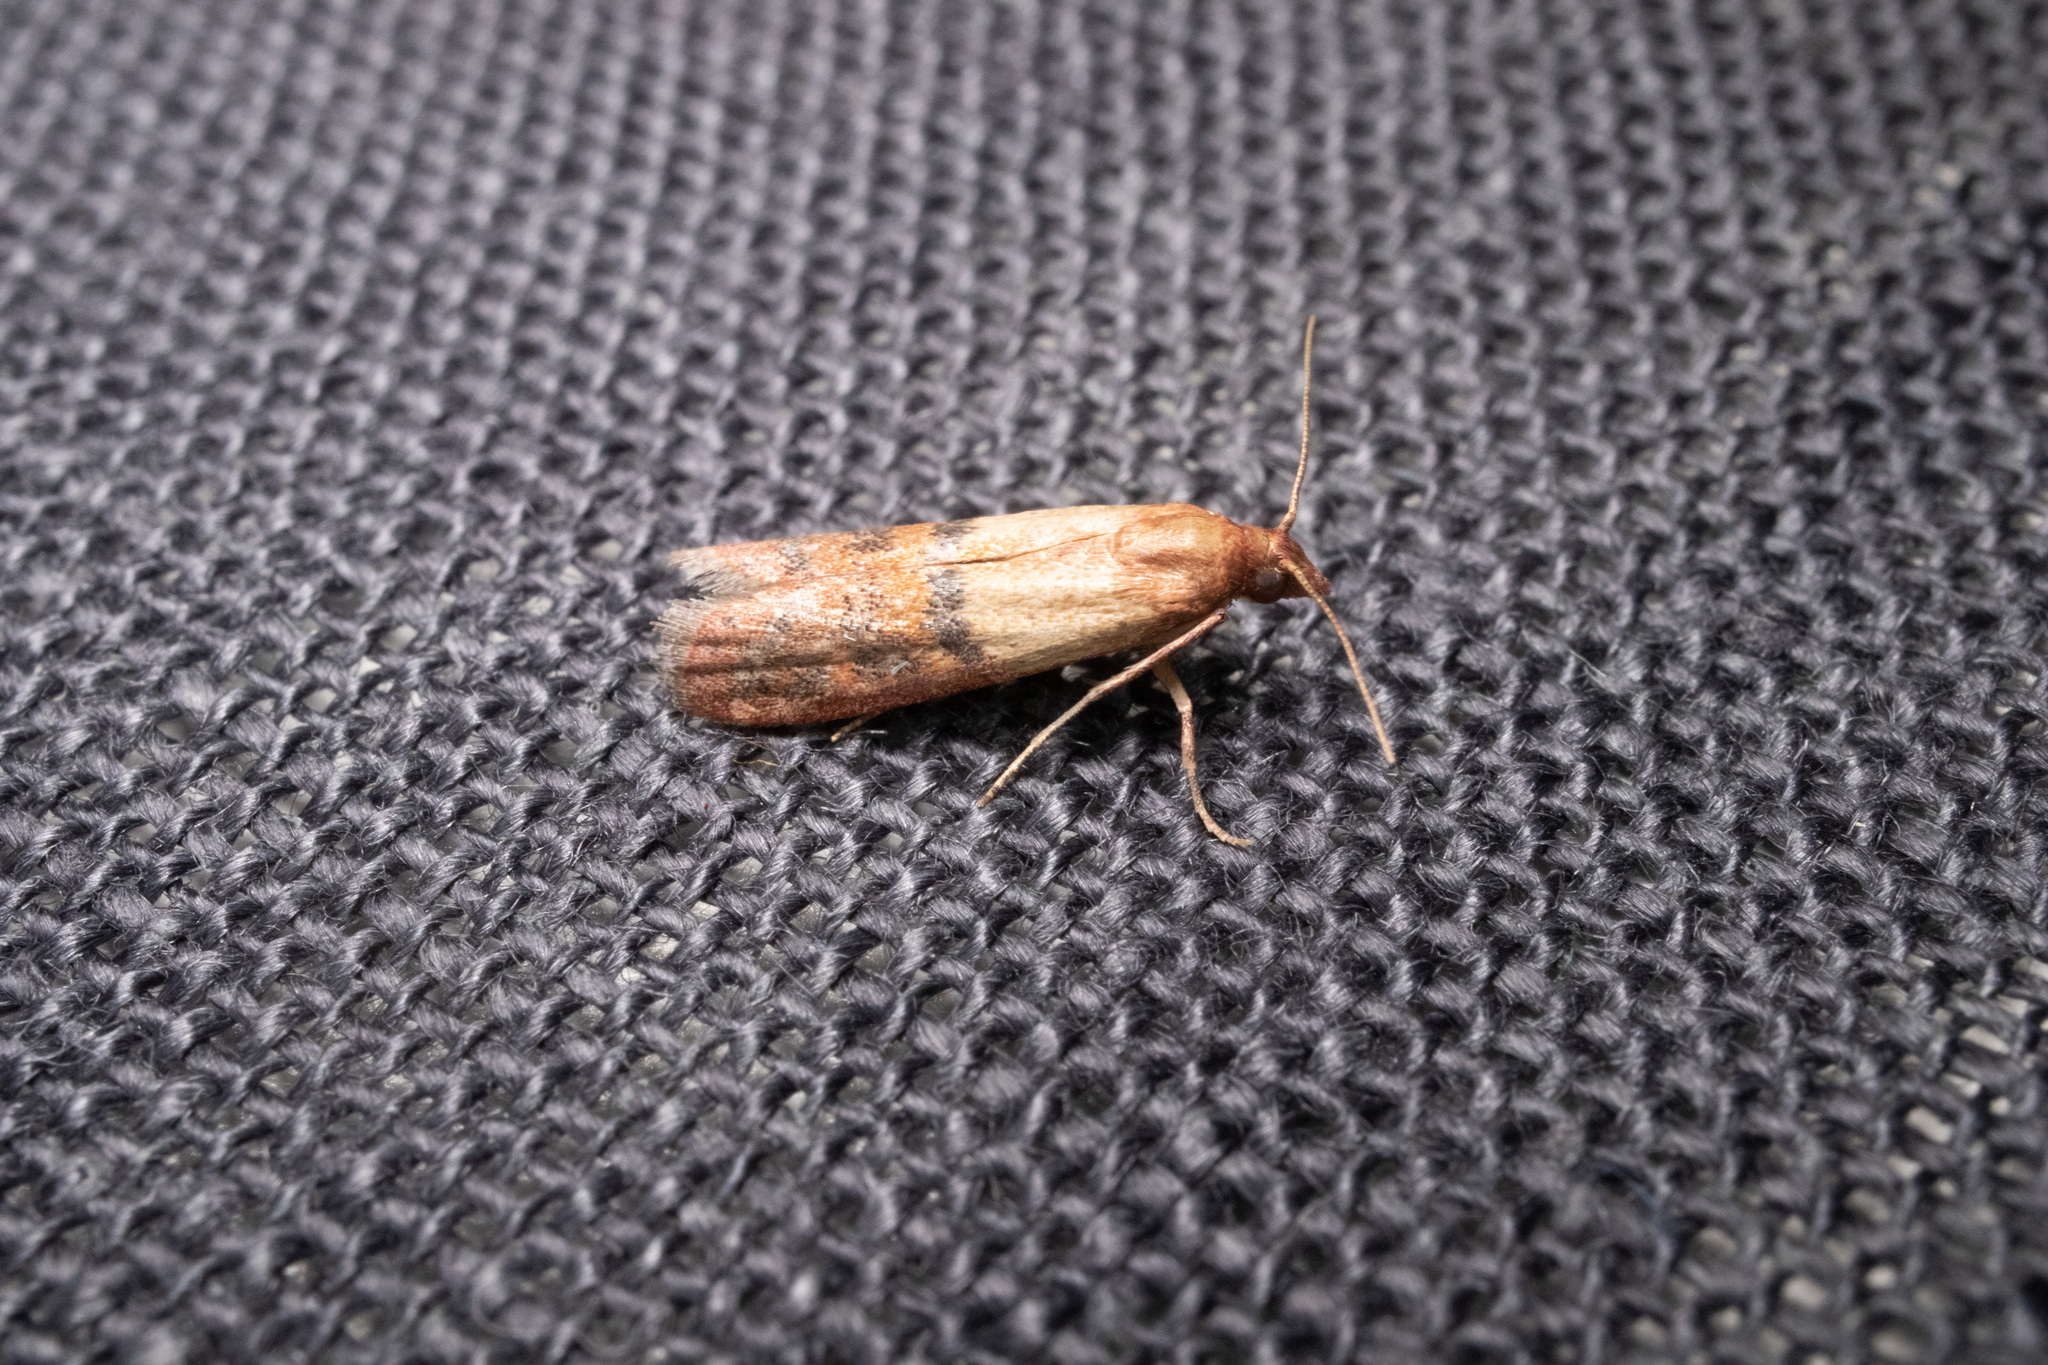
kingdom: Animalia
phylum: Arthropoda
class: Insecta
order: Lepidoptera
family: Pyralidae
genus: Plodia
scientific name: Plodia interpunctella
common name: Indian meal moth
